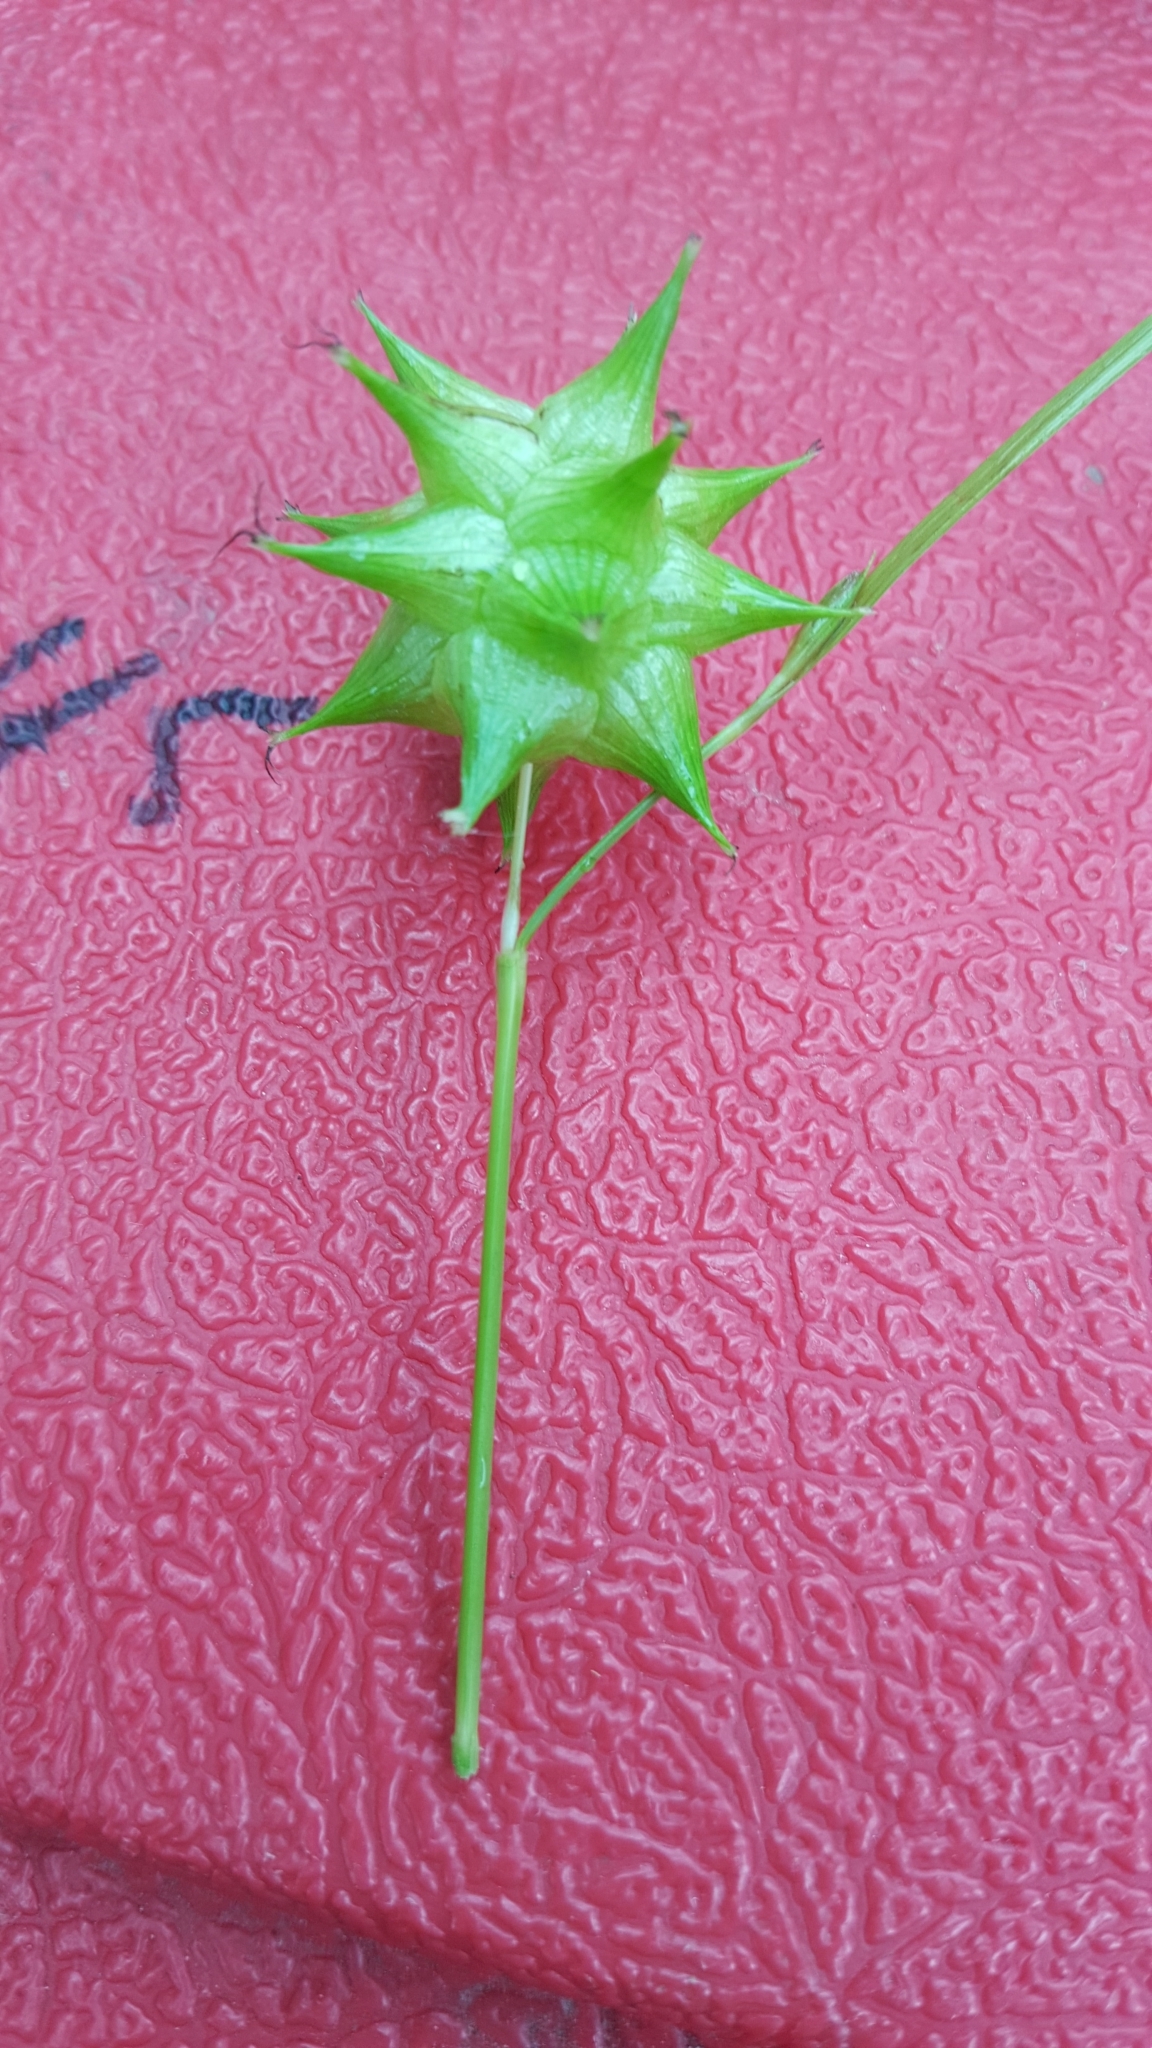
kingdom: Plantae
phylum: Tracheophyta
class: Liliopsida
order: Poales
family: Cyperaceae
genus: Carex
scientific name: Carex grayi
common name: Asa gray's sedge
